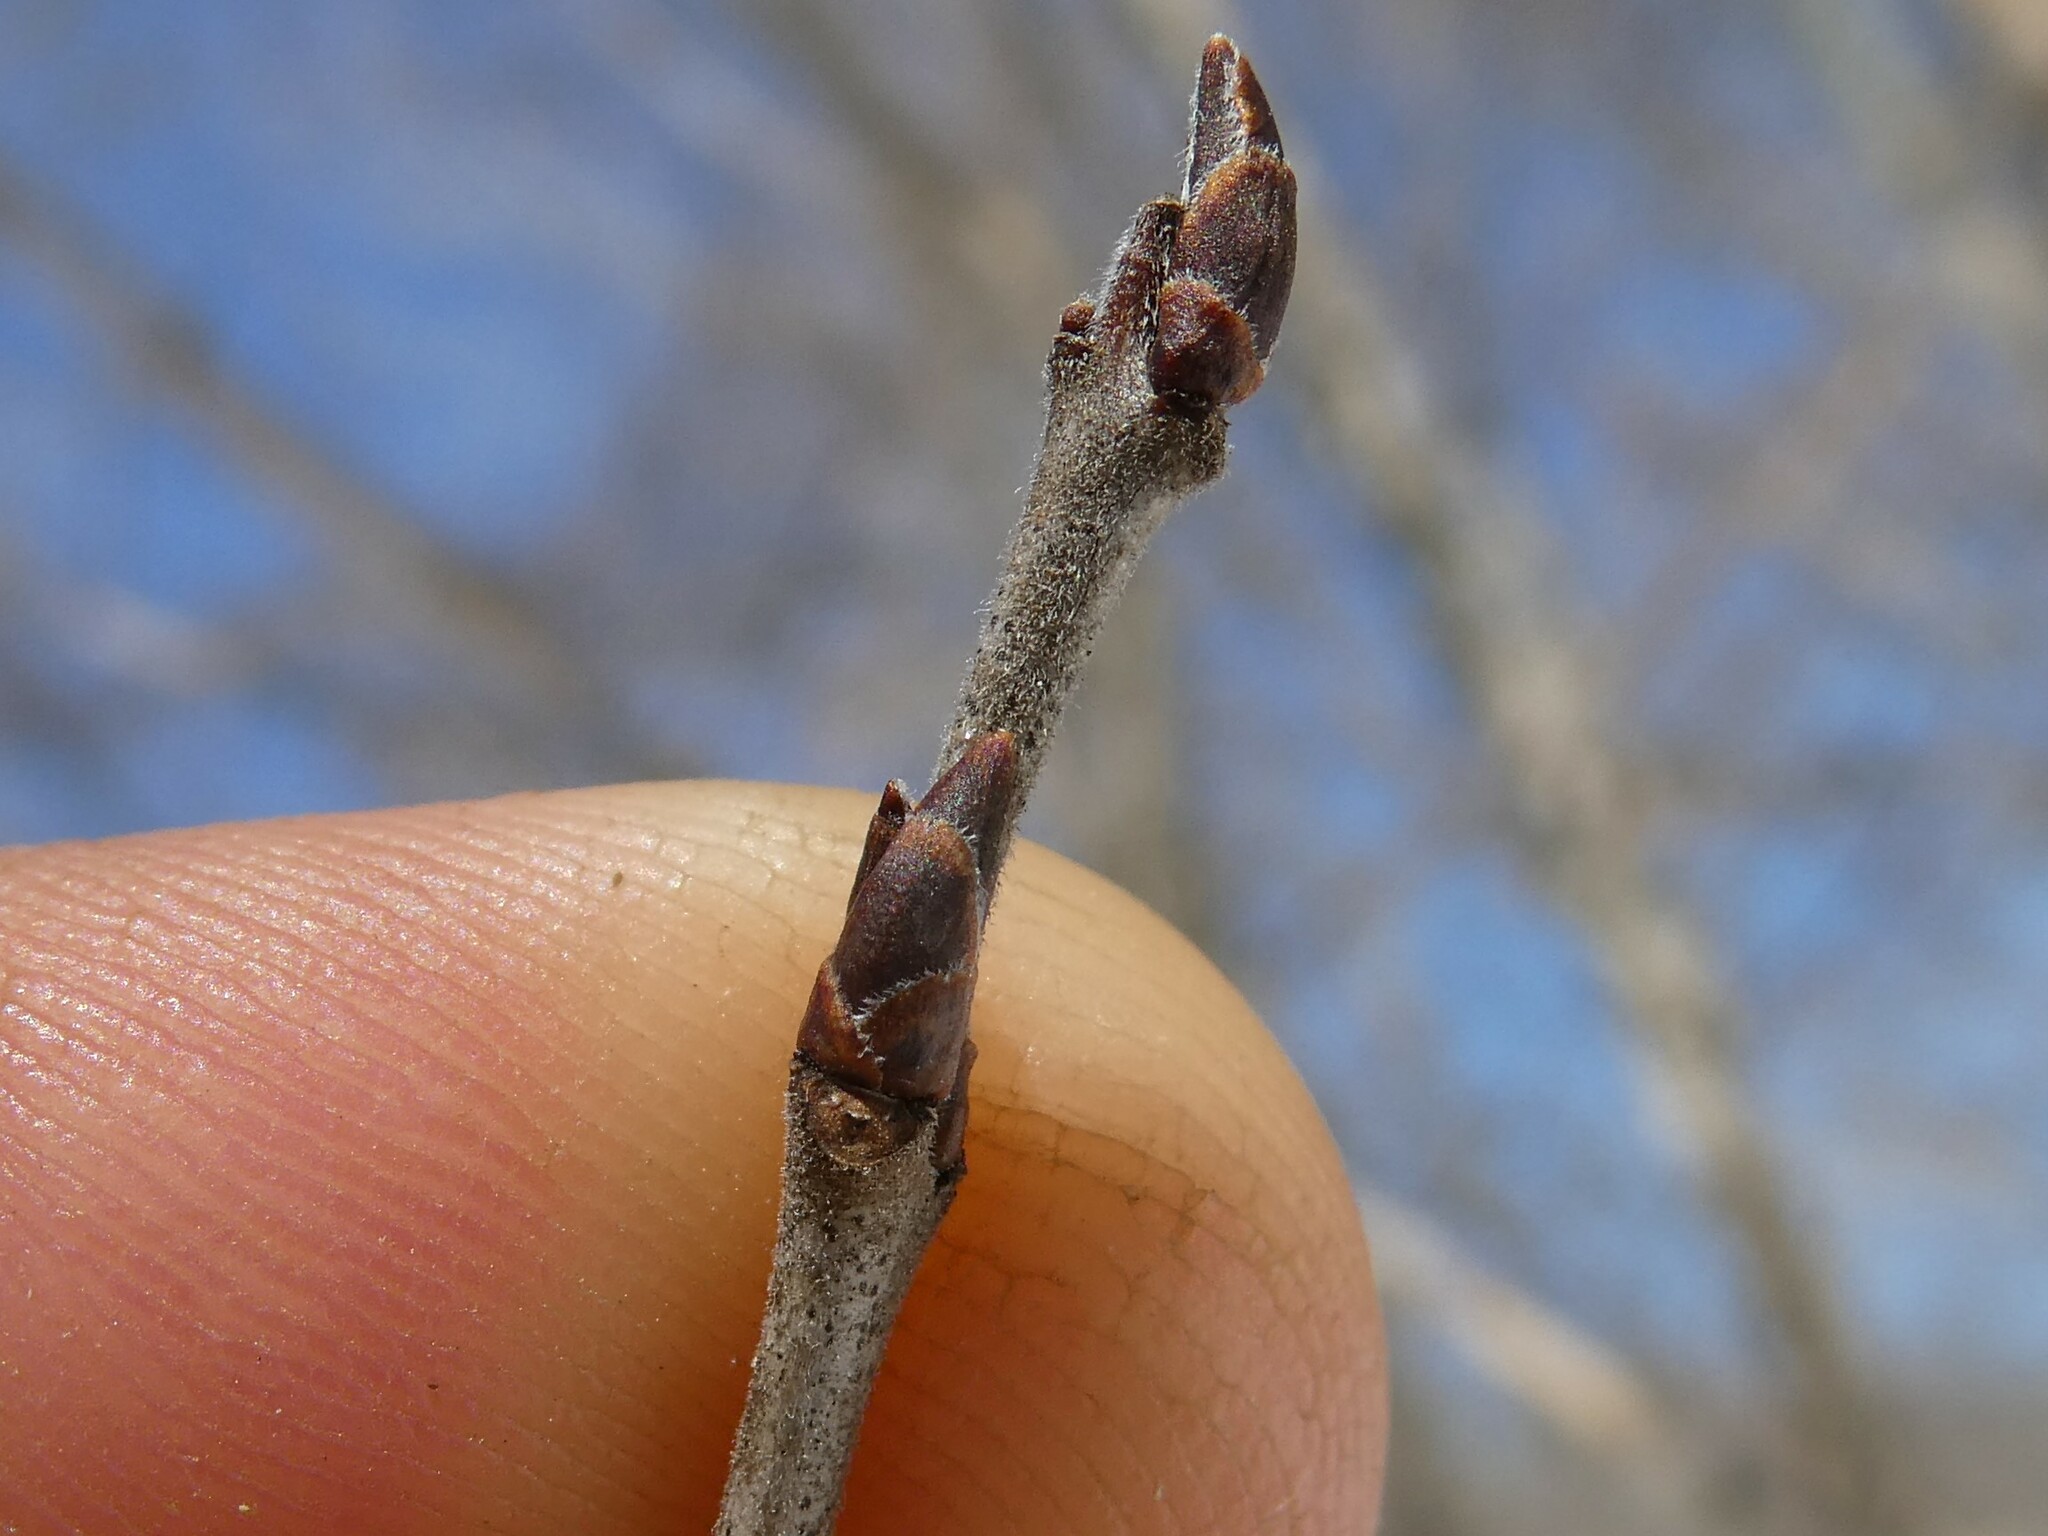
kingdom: Plantae
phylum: Tracheophyta
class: Magnoliopsida
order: Rosales
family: Rhamnaceae
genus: Rhamnus
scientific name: Rhamnus cathartica
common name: Common buckthorn
